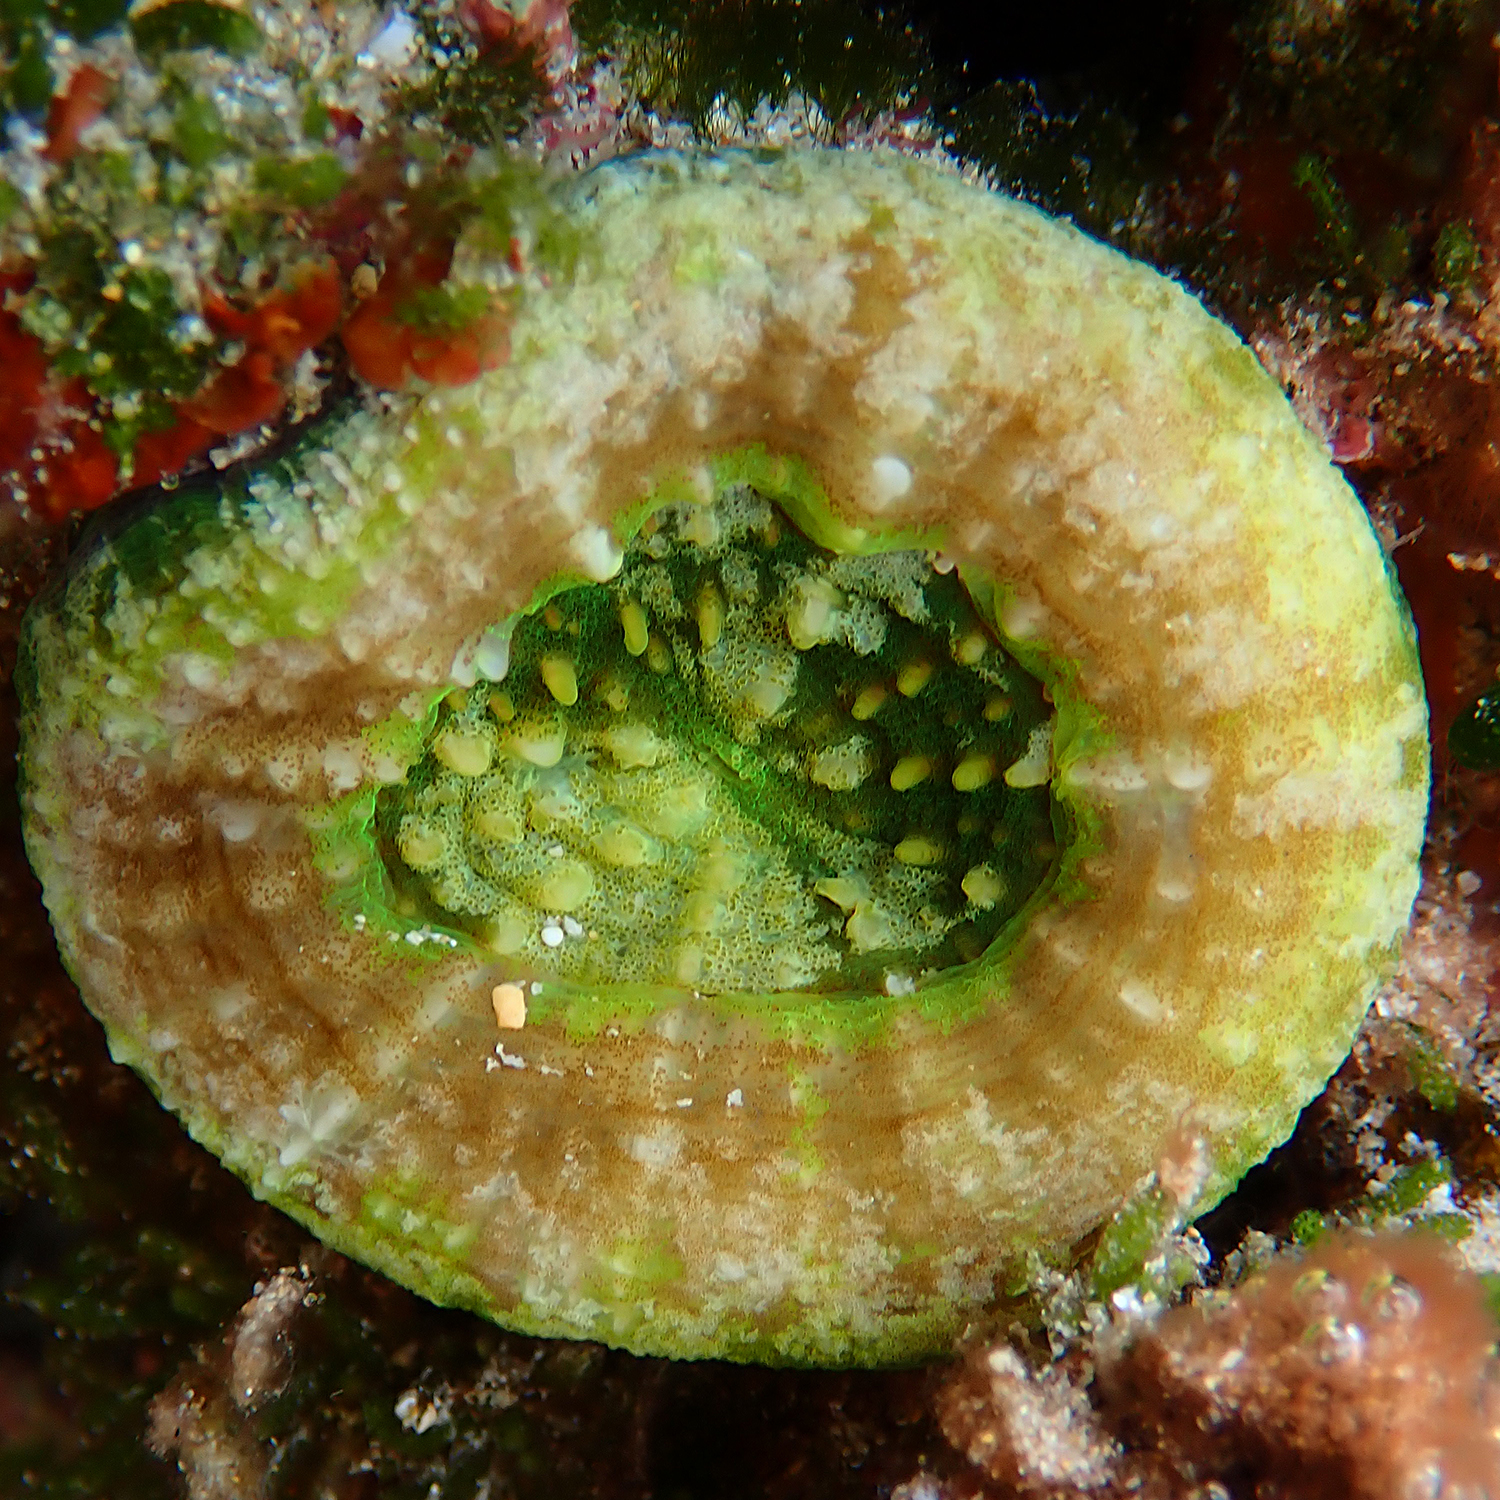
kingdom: Animalia
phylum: Cnidaria
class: Anthozoa
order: Scleractinia
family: Lobophylliidae
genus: Homophyllia
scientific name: Homophyllia australis
